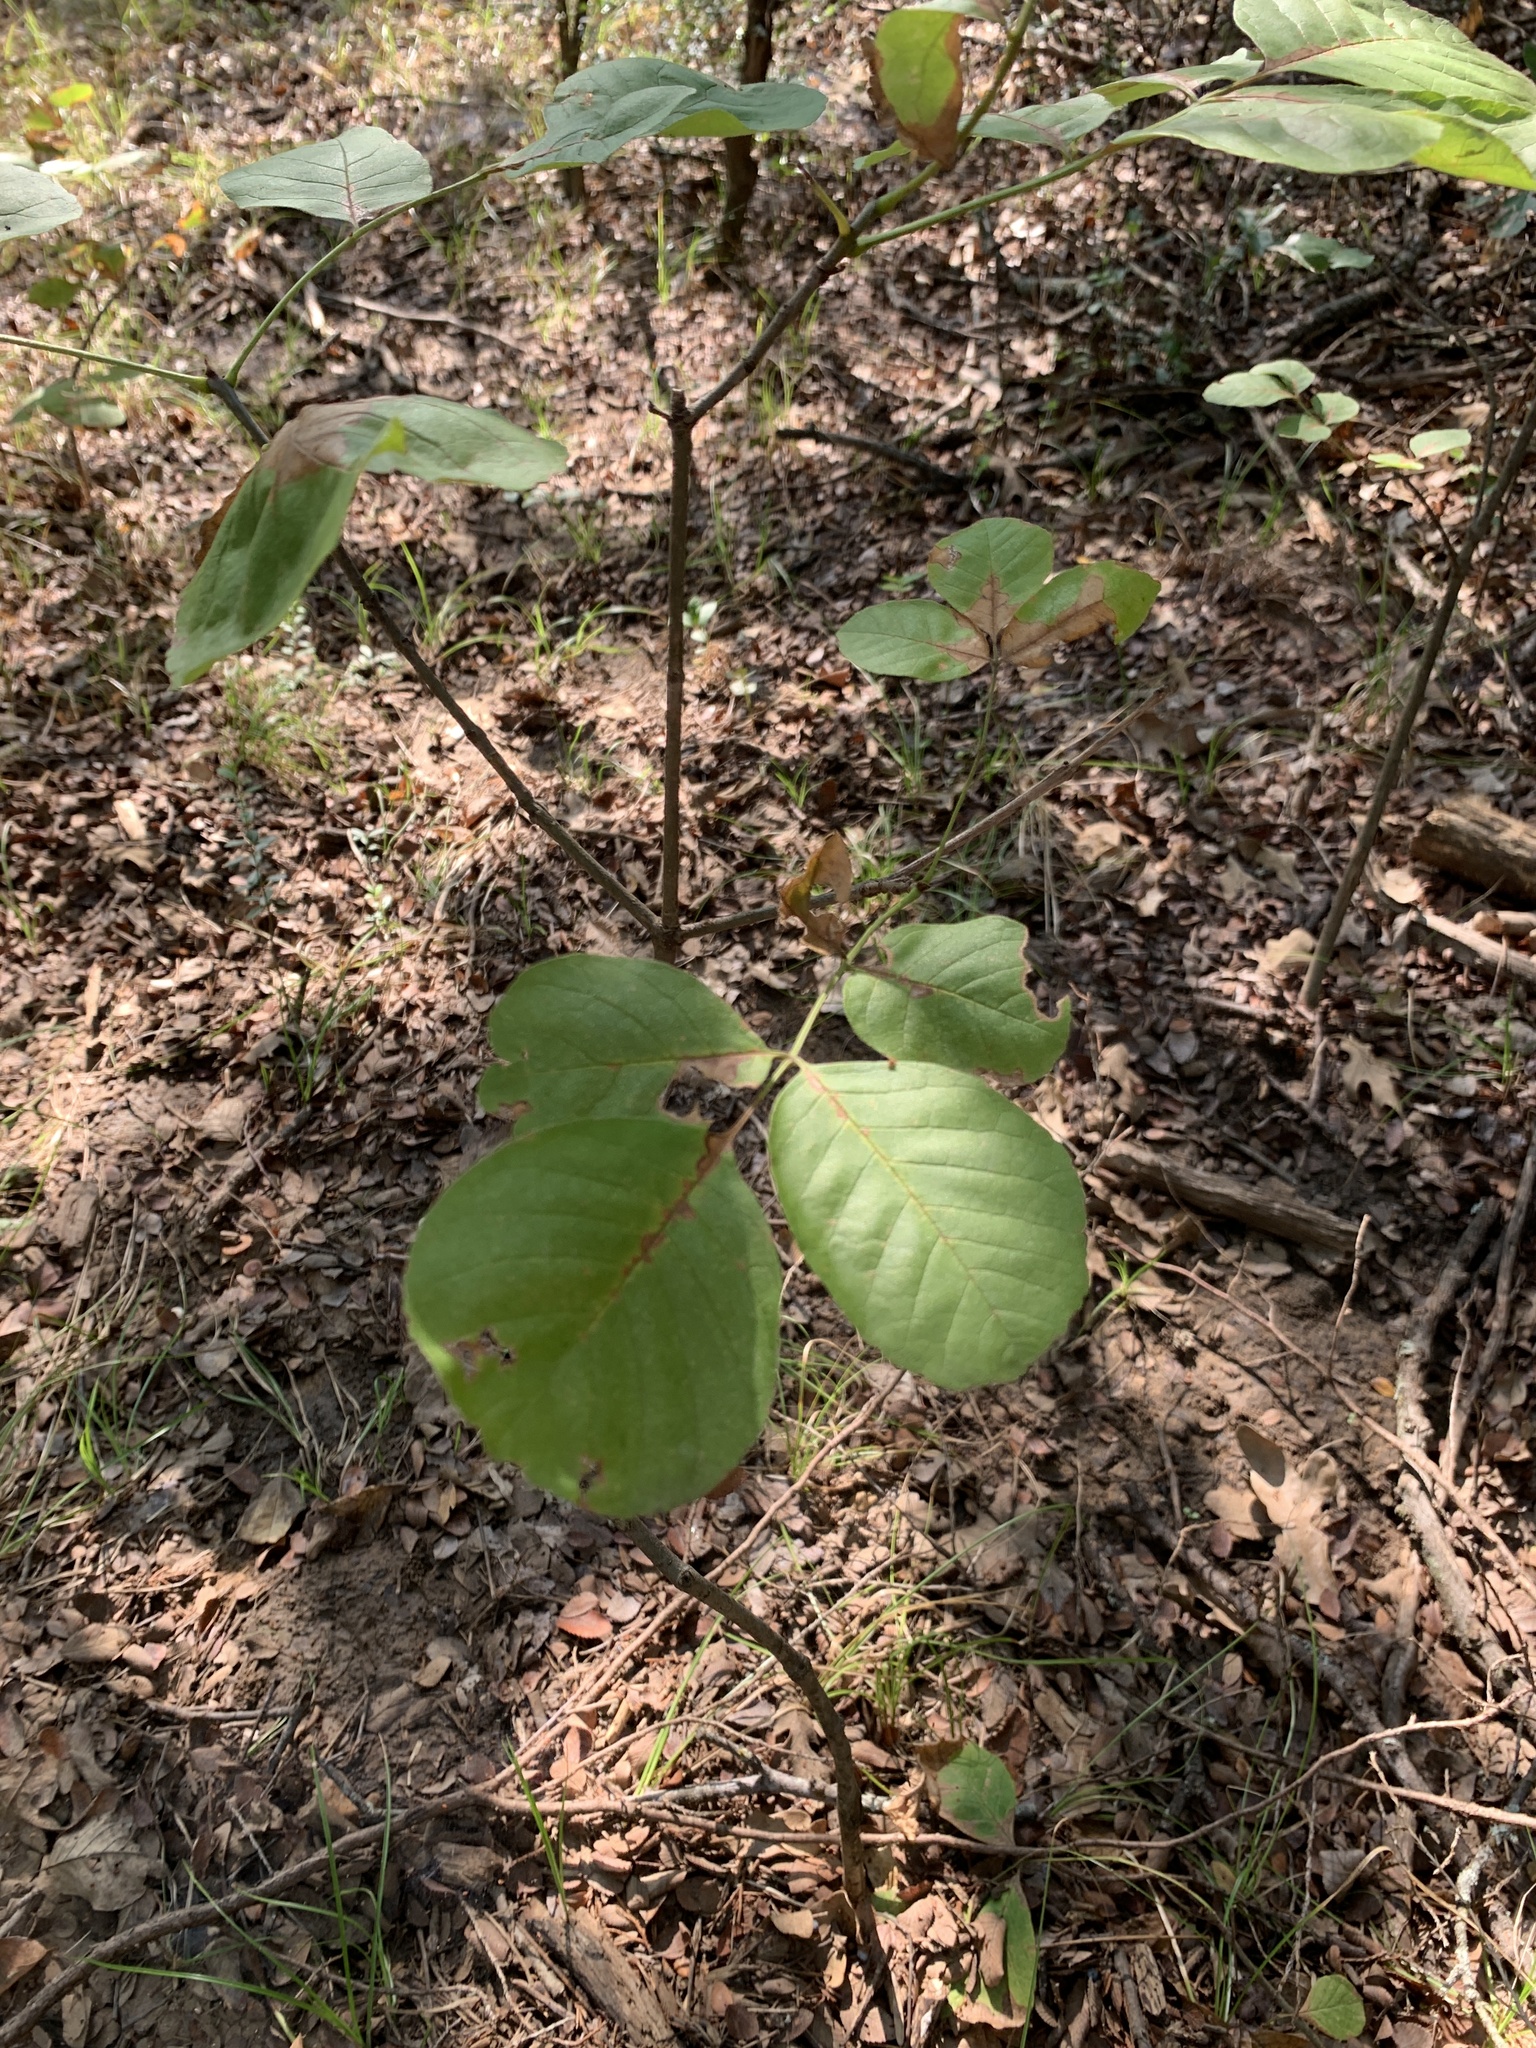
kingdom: Plantae
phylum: Tracheophyta
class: Magnoliopsida
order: Lamiales
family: Oleaceae
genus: Fraxinus
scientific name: Fraxinus albicans
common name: Texas ash
